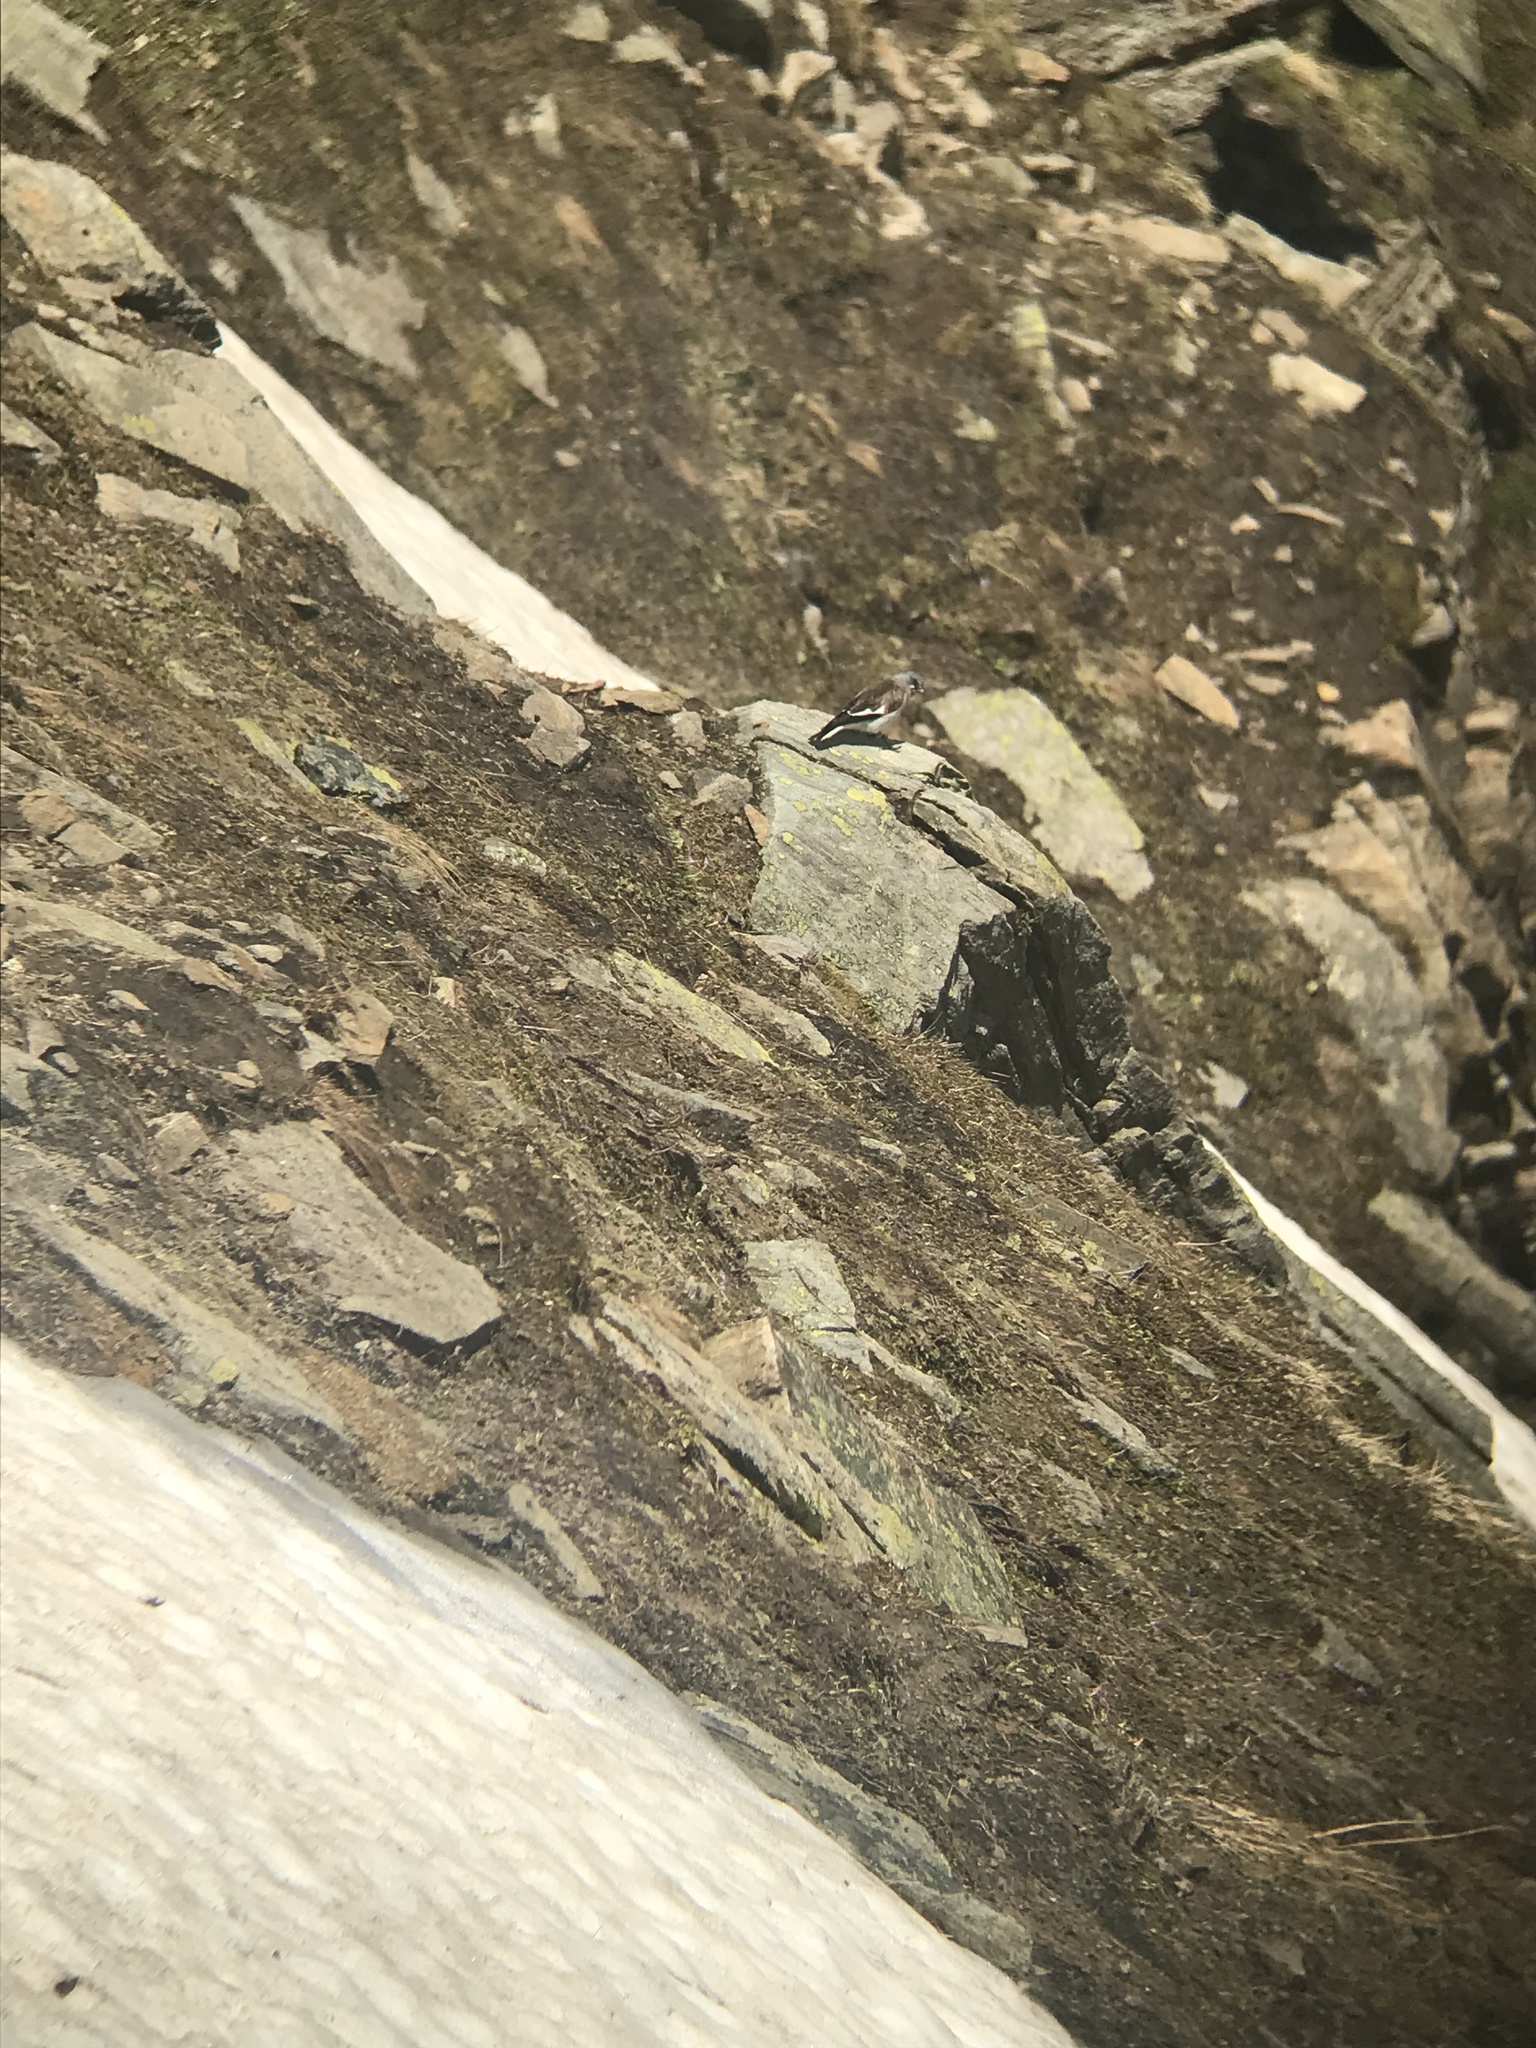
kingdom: Animalia
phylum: Chordata
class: Aves
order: Passeriformes
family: Passeridae
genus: Montifringilla
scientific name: Montifringilla nivalis
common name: White-winged snowfinch
